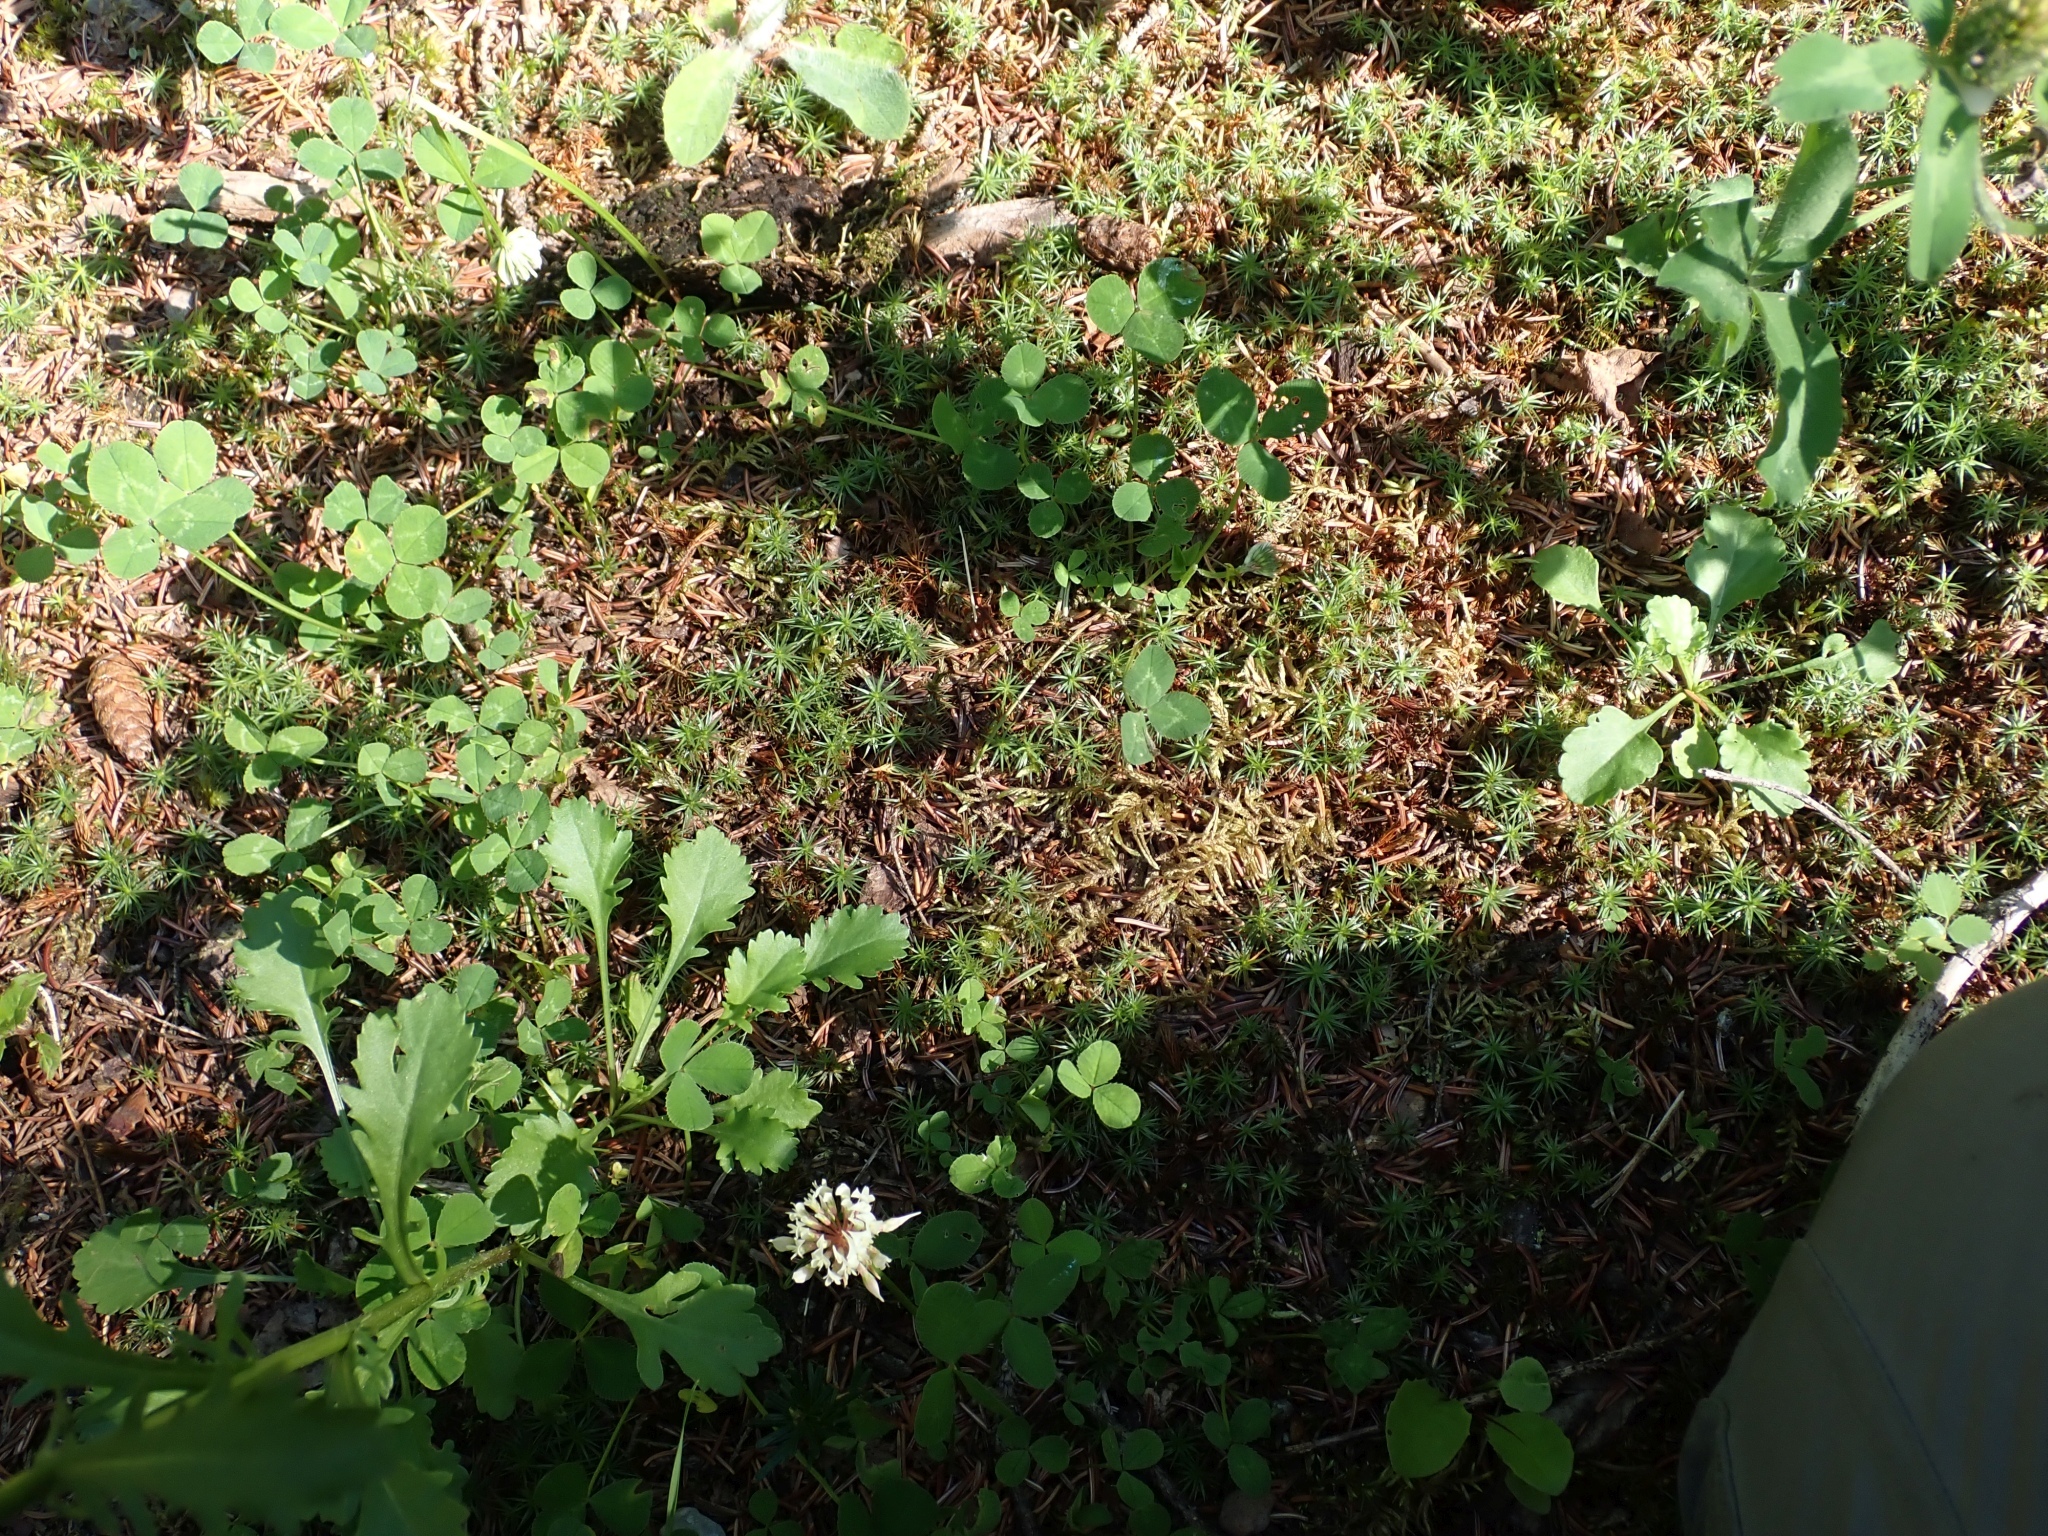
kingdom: Plantae
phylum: Bryophyta
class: Polytrichopsida
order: Polytrichales
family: Polytrichaceae
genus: Polytrichum
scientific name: Polytrichum juniperinum
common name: Juniper haircap moss
